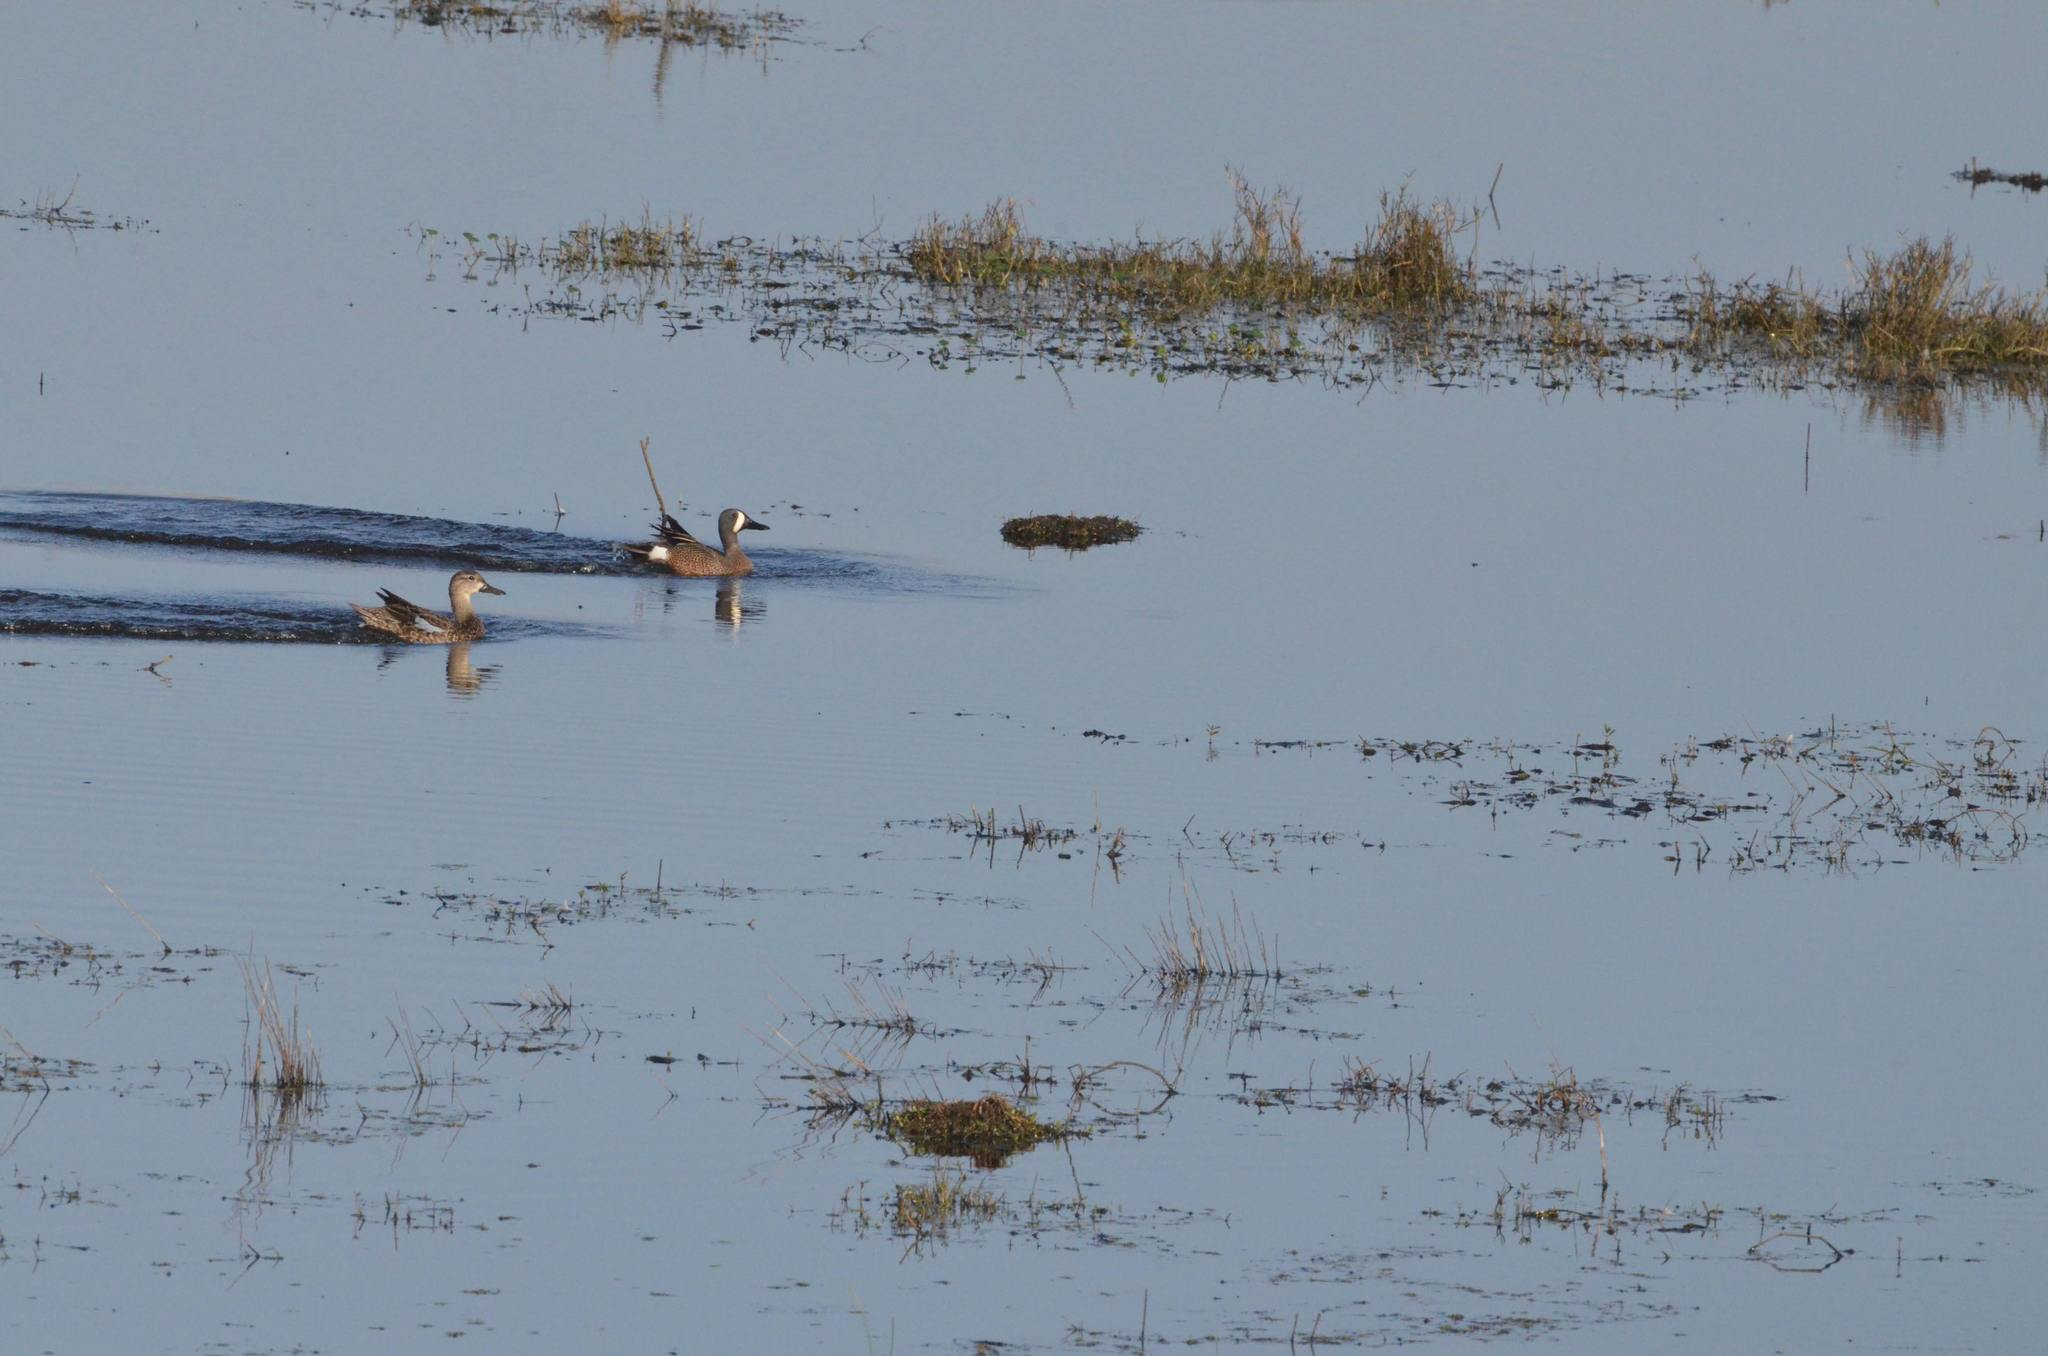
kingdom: Animalia
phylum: Chordata
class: Aves
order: Anseriformes
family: Anatidae
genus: Spatula
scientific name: Spatula discors
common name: Blue-winged teal
